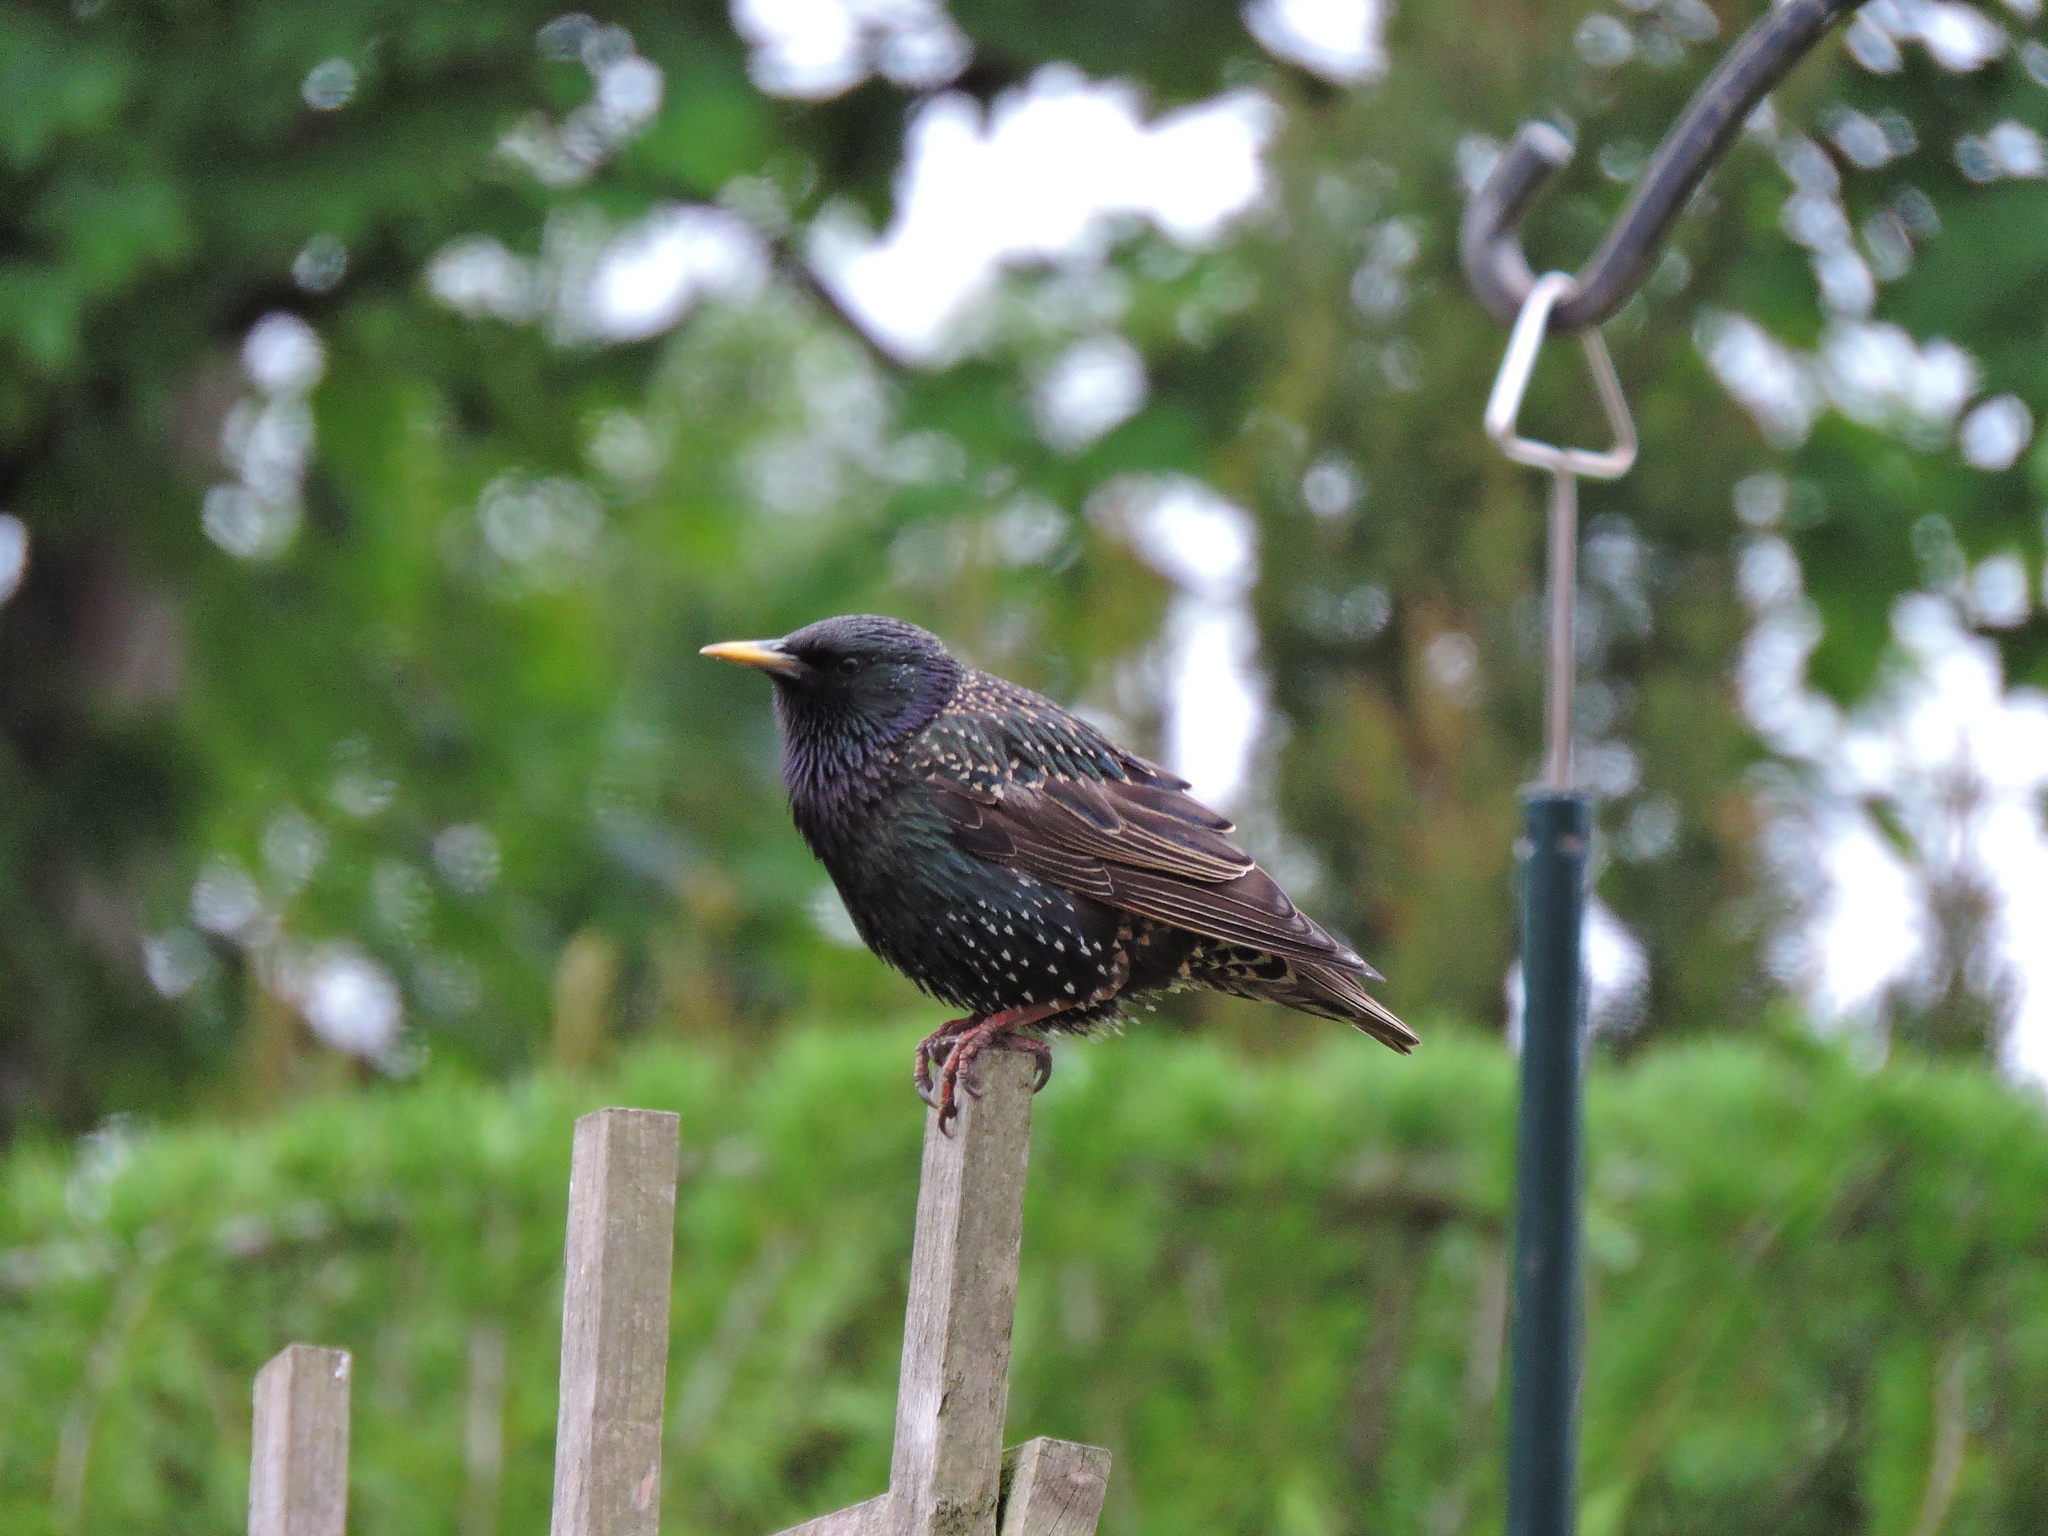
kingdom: Animalia
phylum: Chordata
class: Aves
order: Passeriformes
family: Sturnidae
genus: Sturnus
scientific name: Sturnus vulgaris
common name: Common starling
